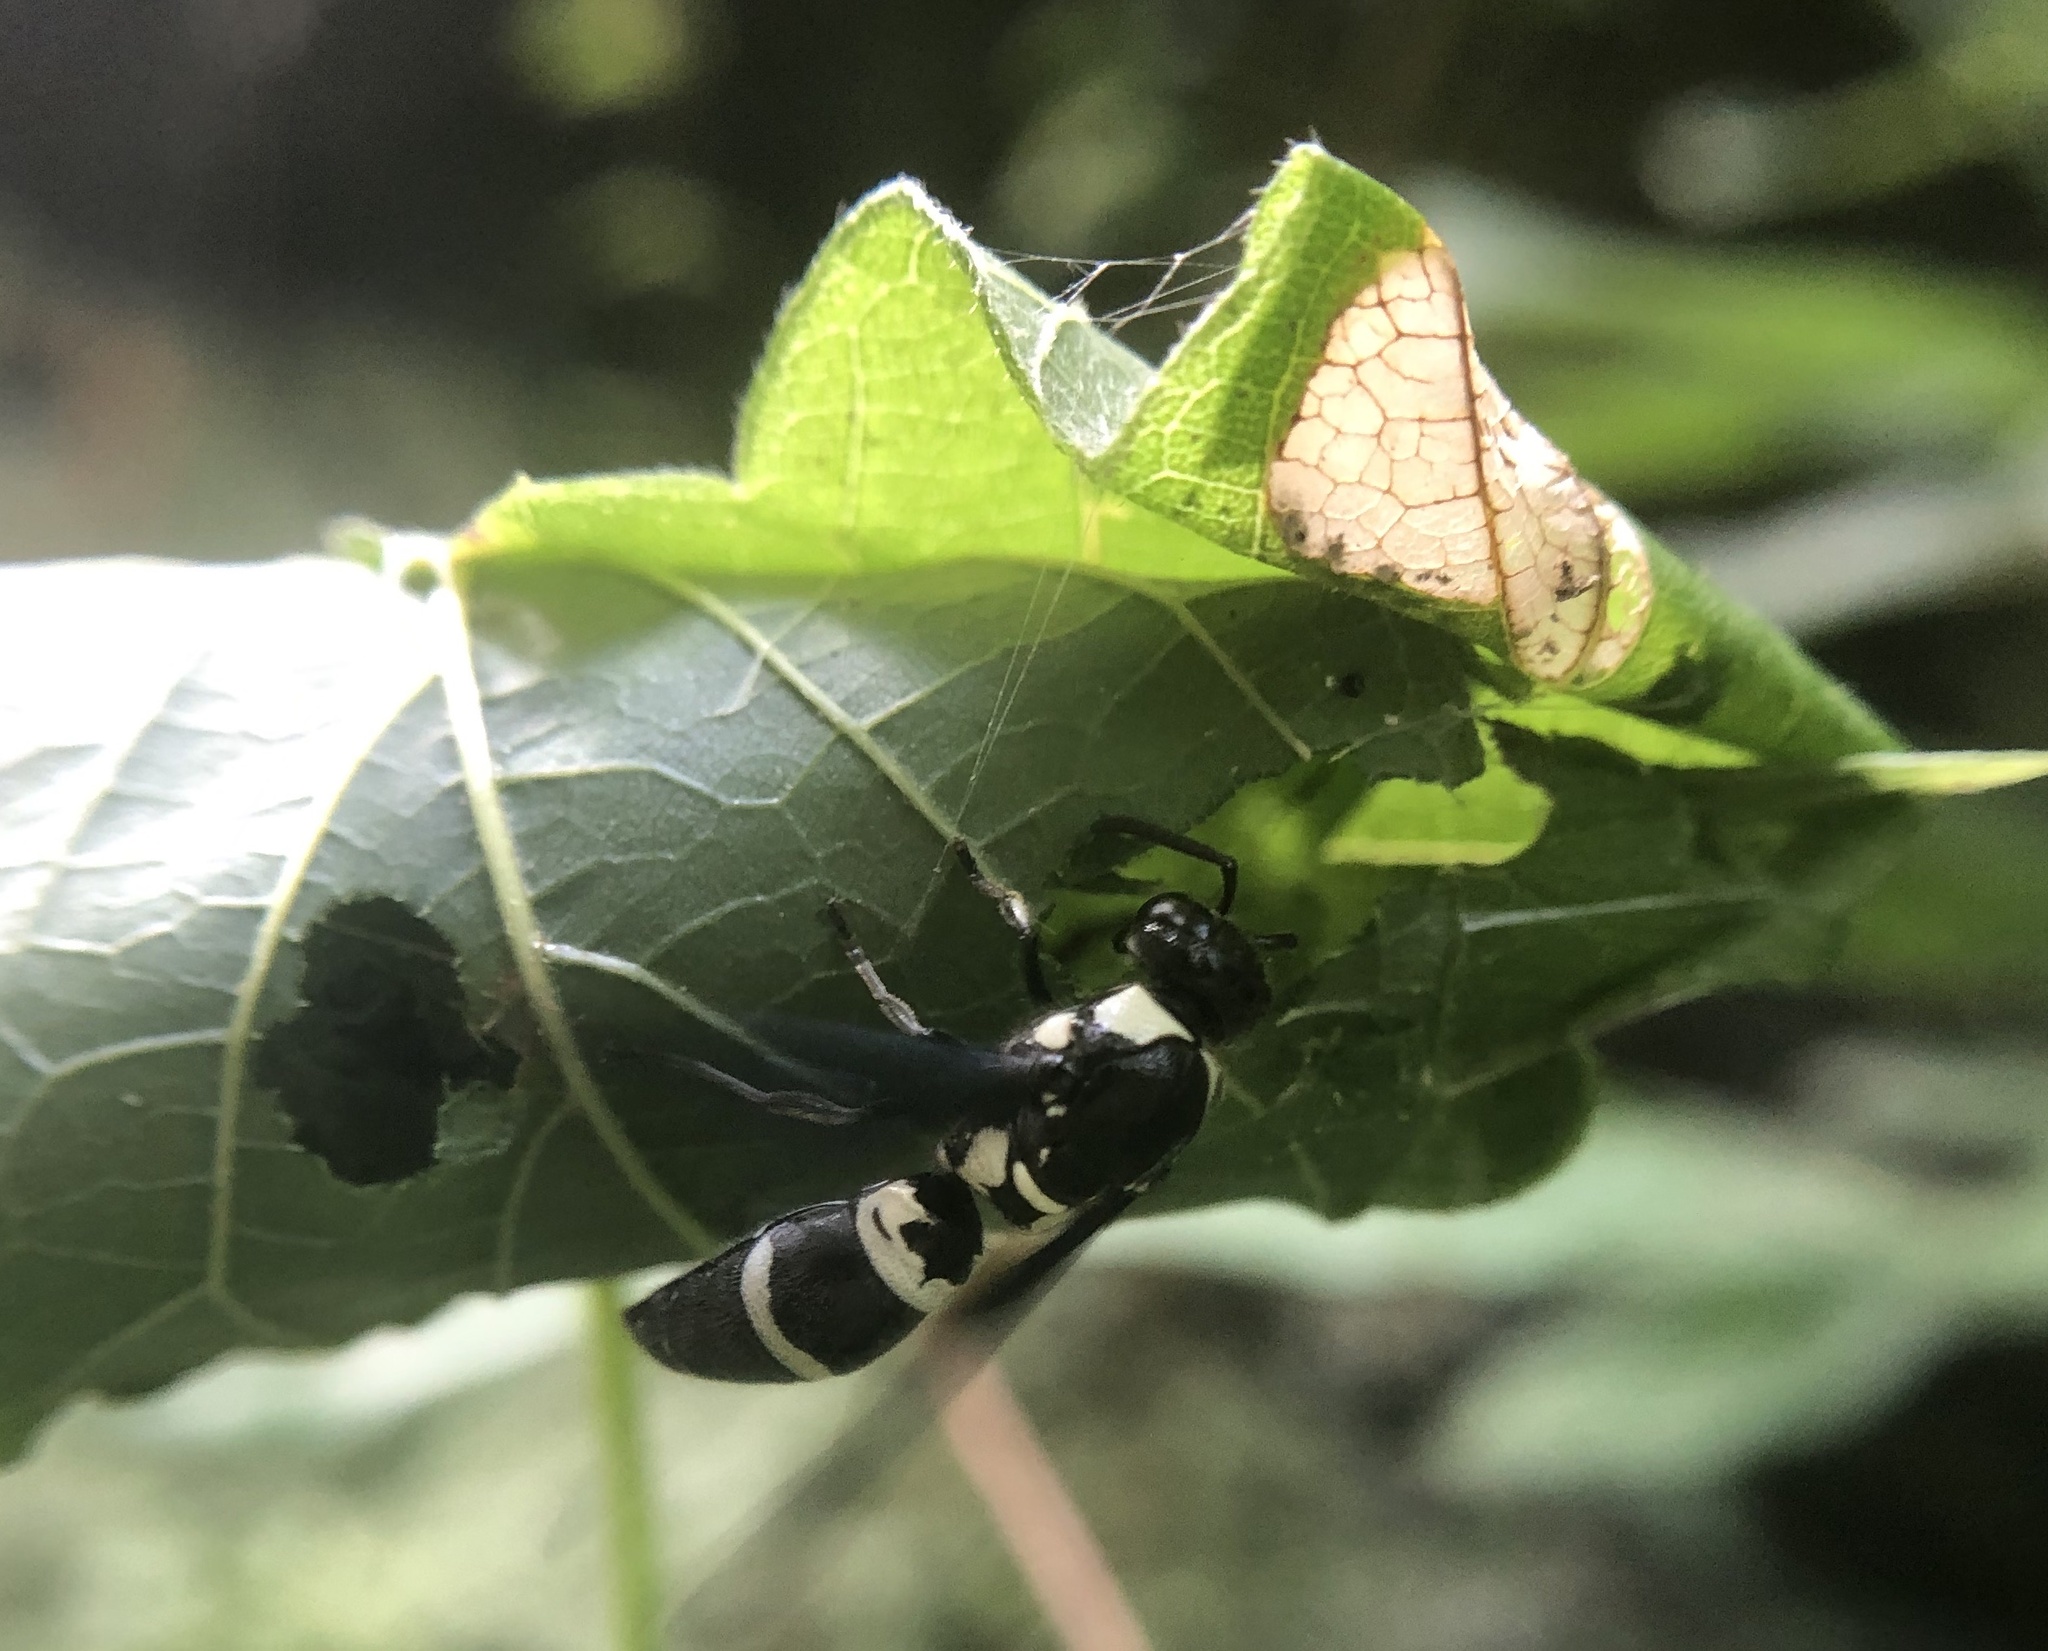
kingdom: Animalia
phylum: Arthropoda
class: Insecta
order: Hymenoptera
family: Eumenidae
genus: Pseudodynerus
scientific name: Pseudodynerus quadrisectus
